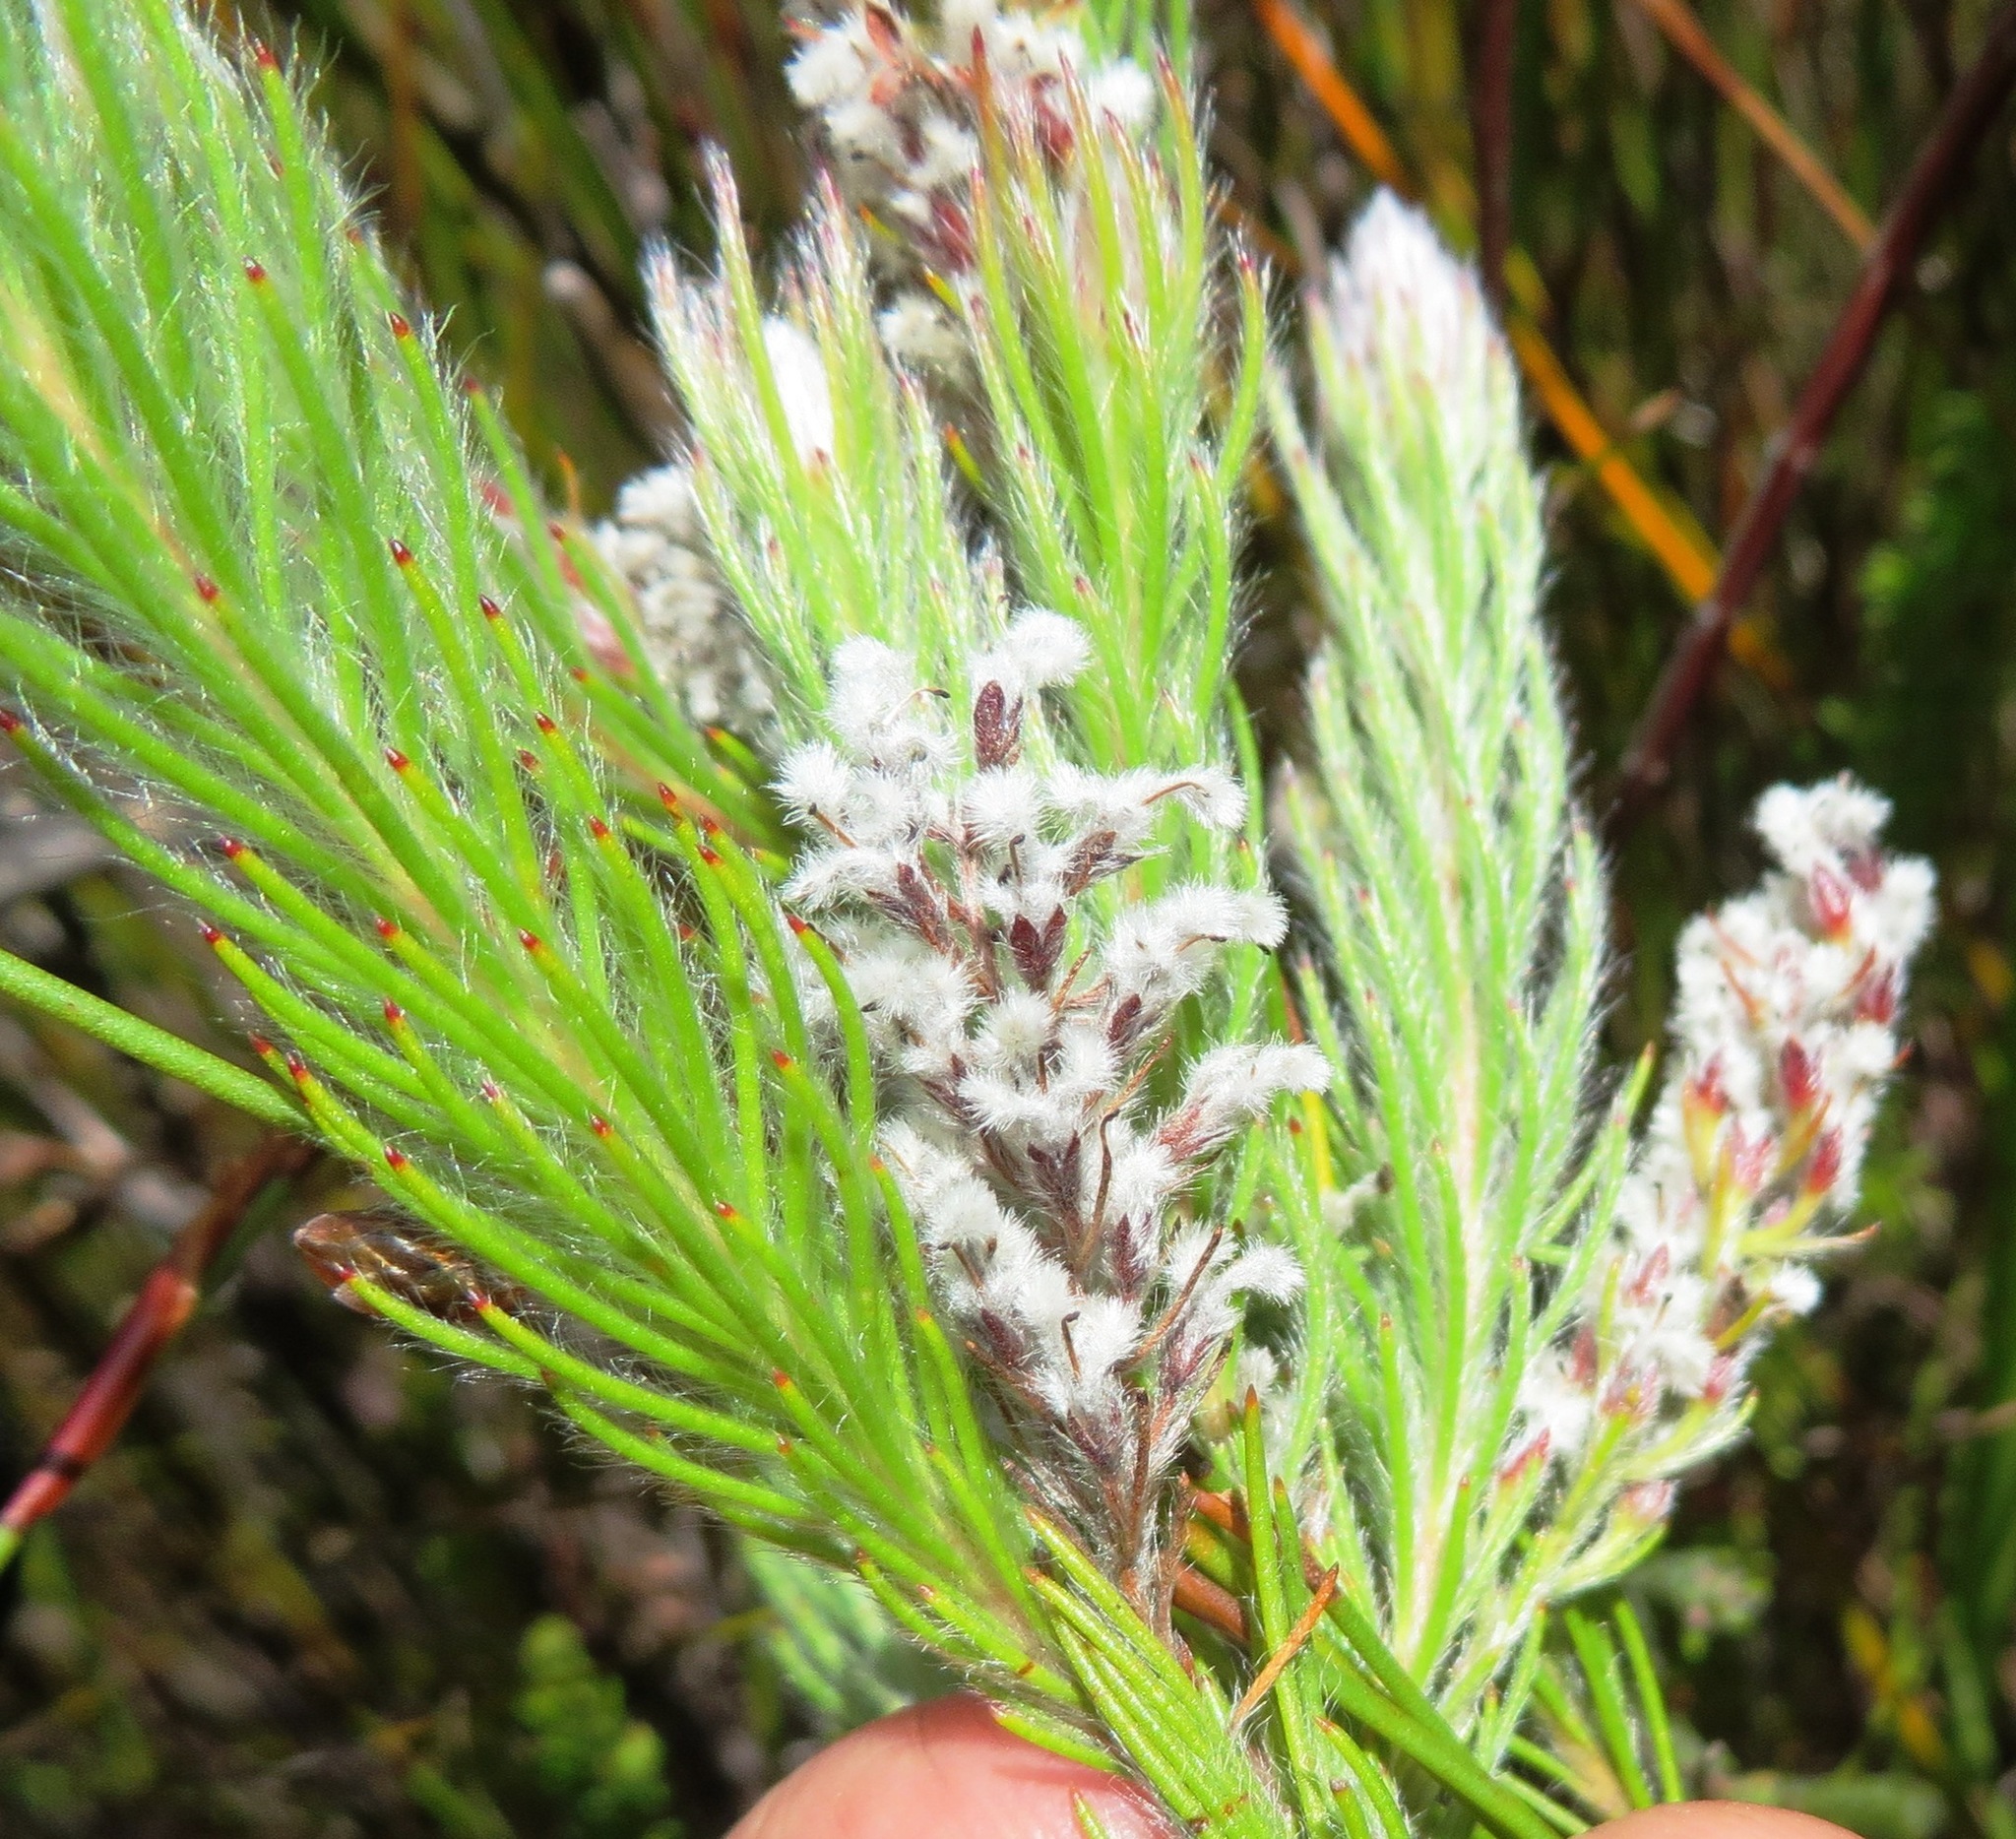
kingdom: Plantae
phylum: Tracheophyta
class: Magnoliopsida
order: Proteales
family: Proteaceae
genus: Spatalla
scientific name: Spatalla mollis
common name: Woolly spoon
